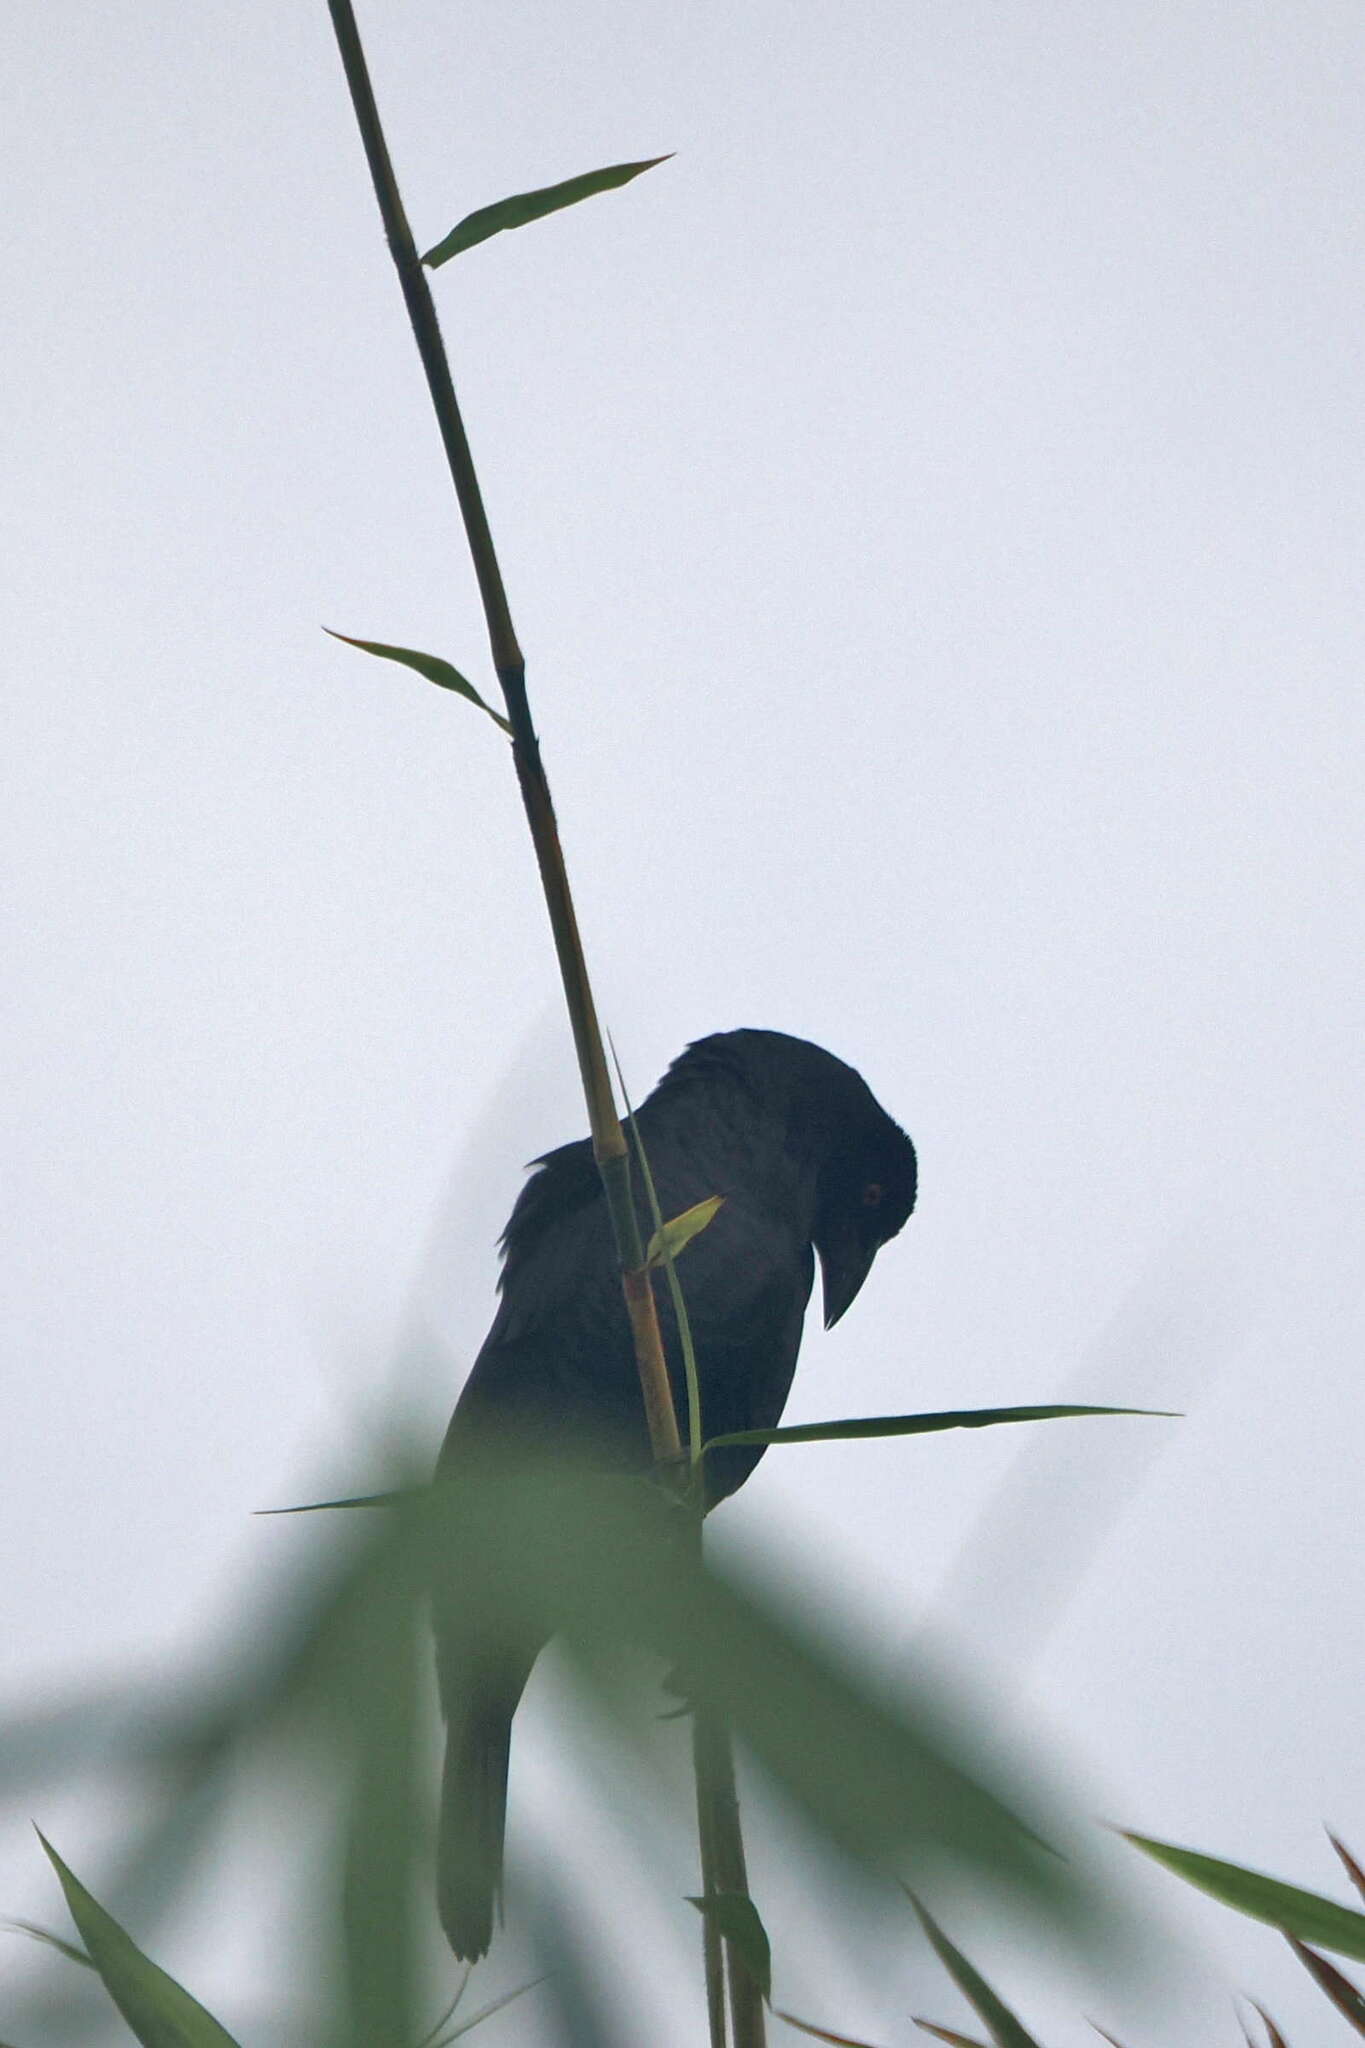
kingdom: Animalia
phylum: Chordata
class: Aves
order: Passeriformes
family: Icteridae
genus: Molothrus
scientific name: Molothrus oryzivorus
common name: Giant cowbird
